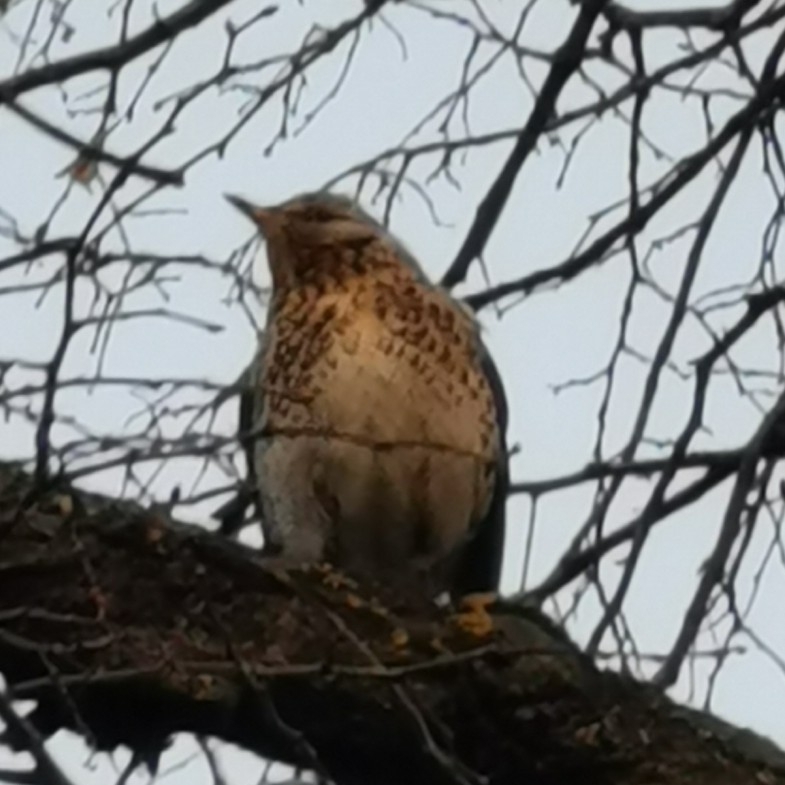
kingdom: Animalia
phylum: Chordata
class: Aves
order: Passeriformes
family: Turdidae
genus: Turdus
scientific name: Turdus pilaris
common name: Fieldfare
